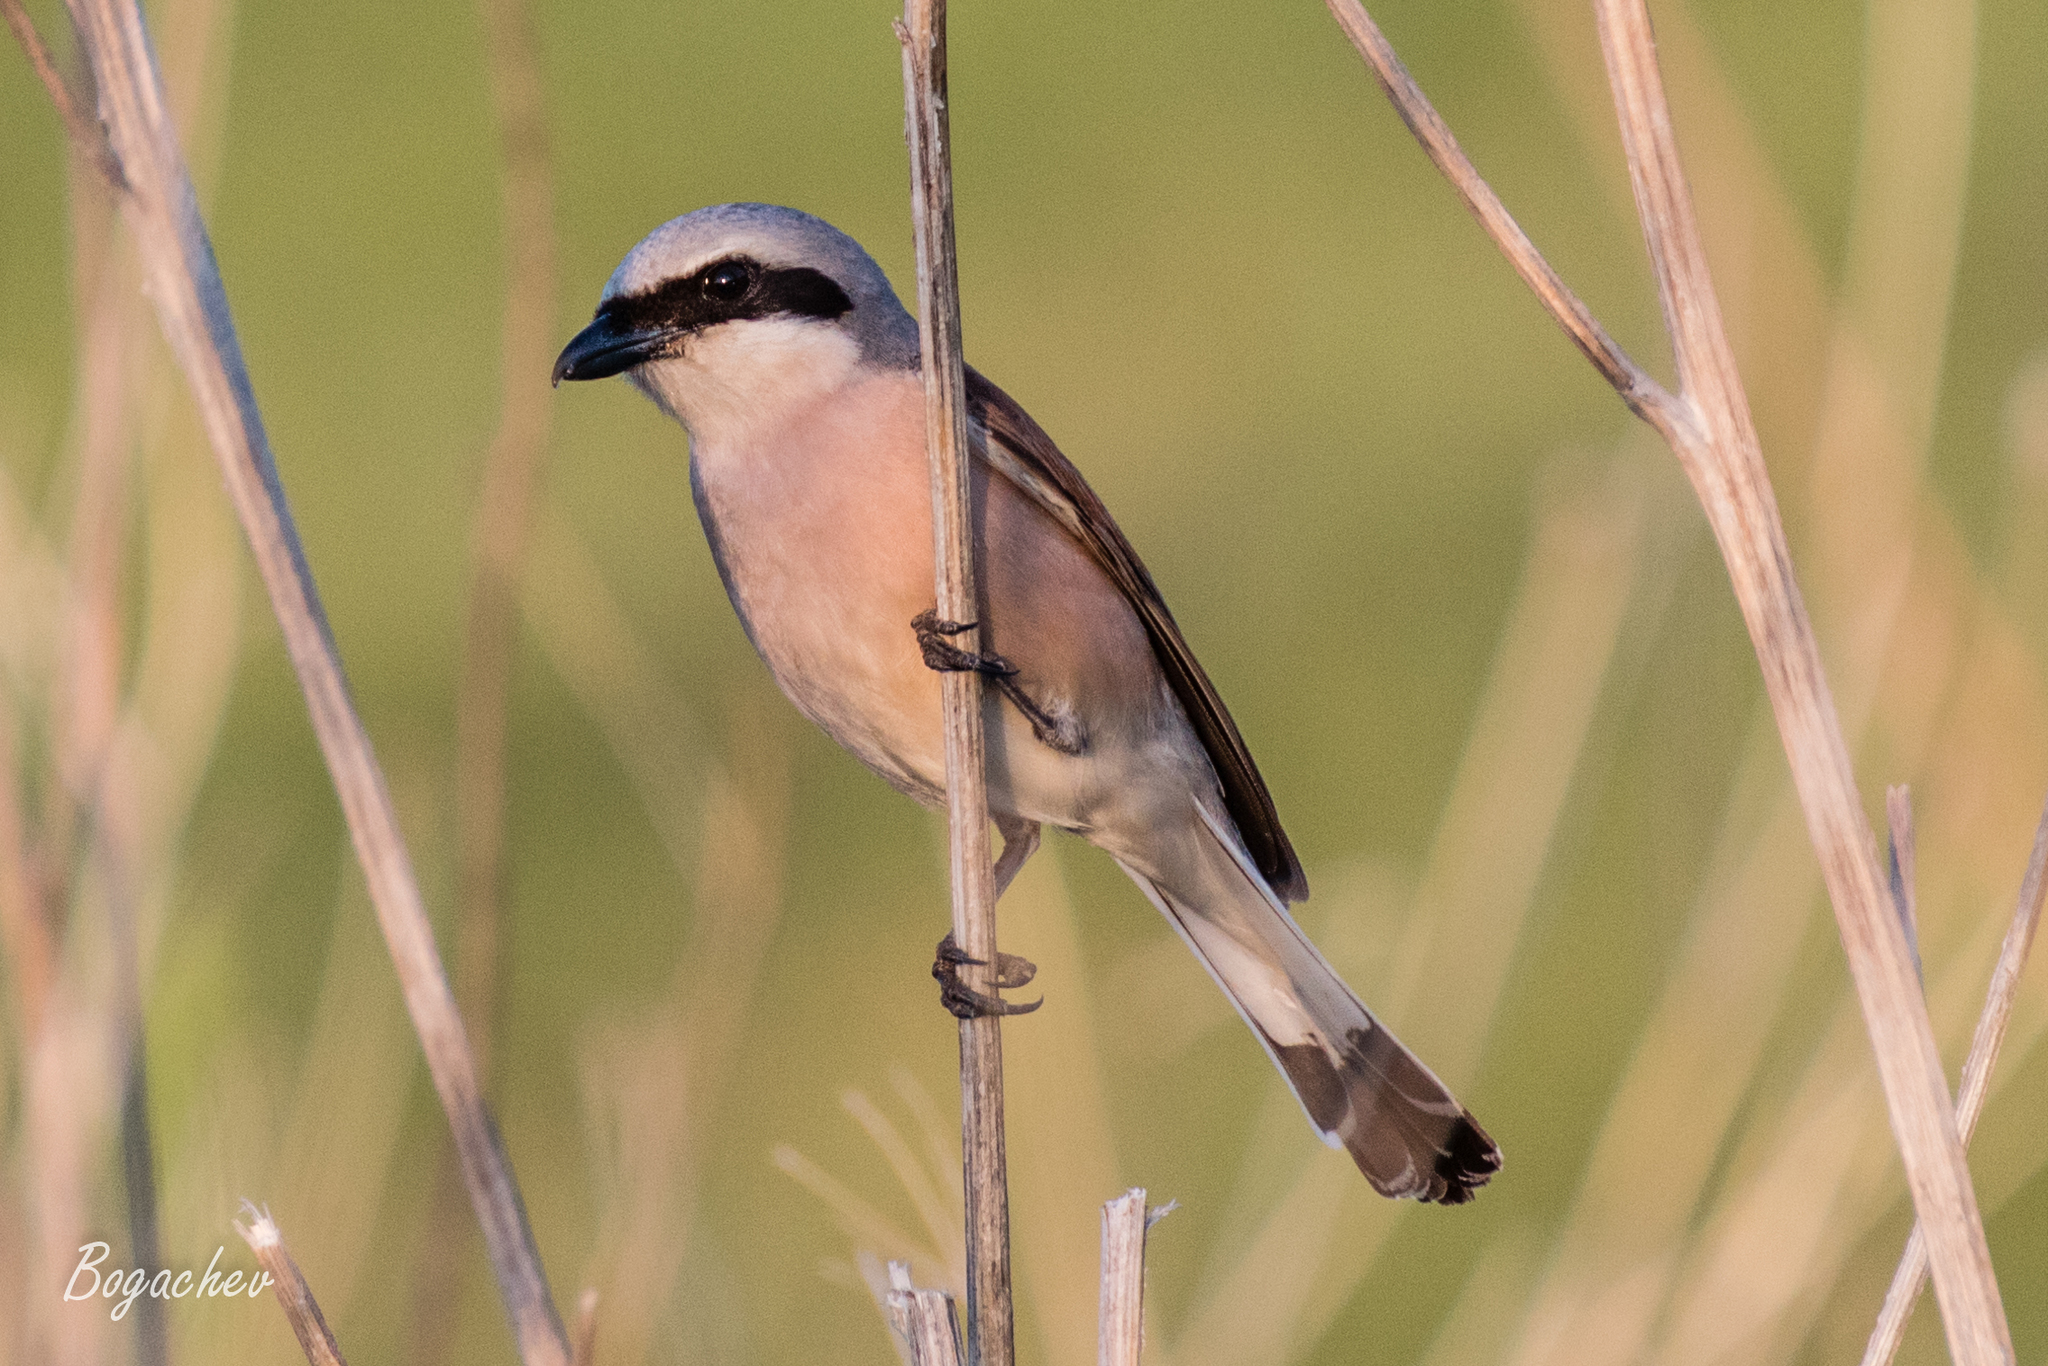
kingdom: Animalia
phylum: Chordata
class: Aves
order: Passeriformes
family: Laniidae
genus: Lanius
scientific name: Lanius collurio
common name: Red-backed shrike
